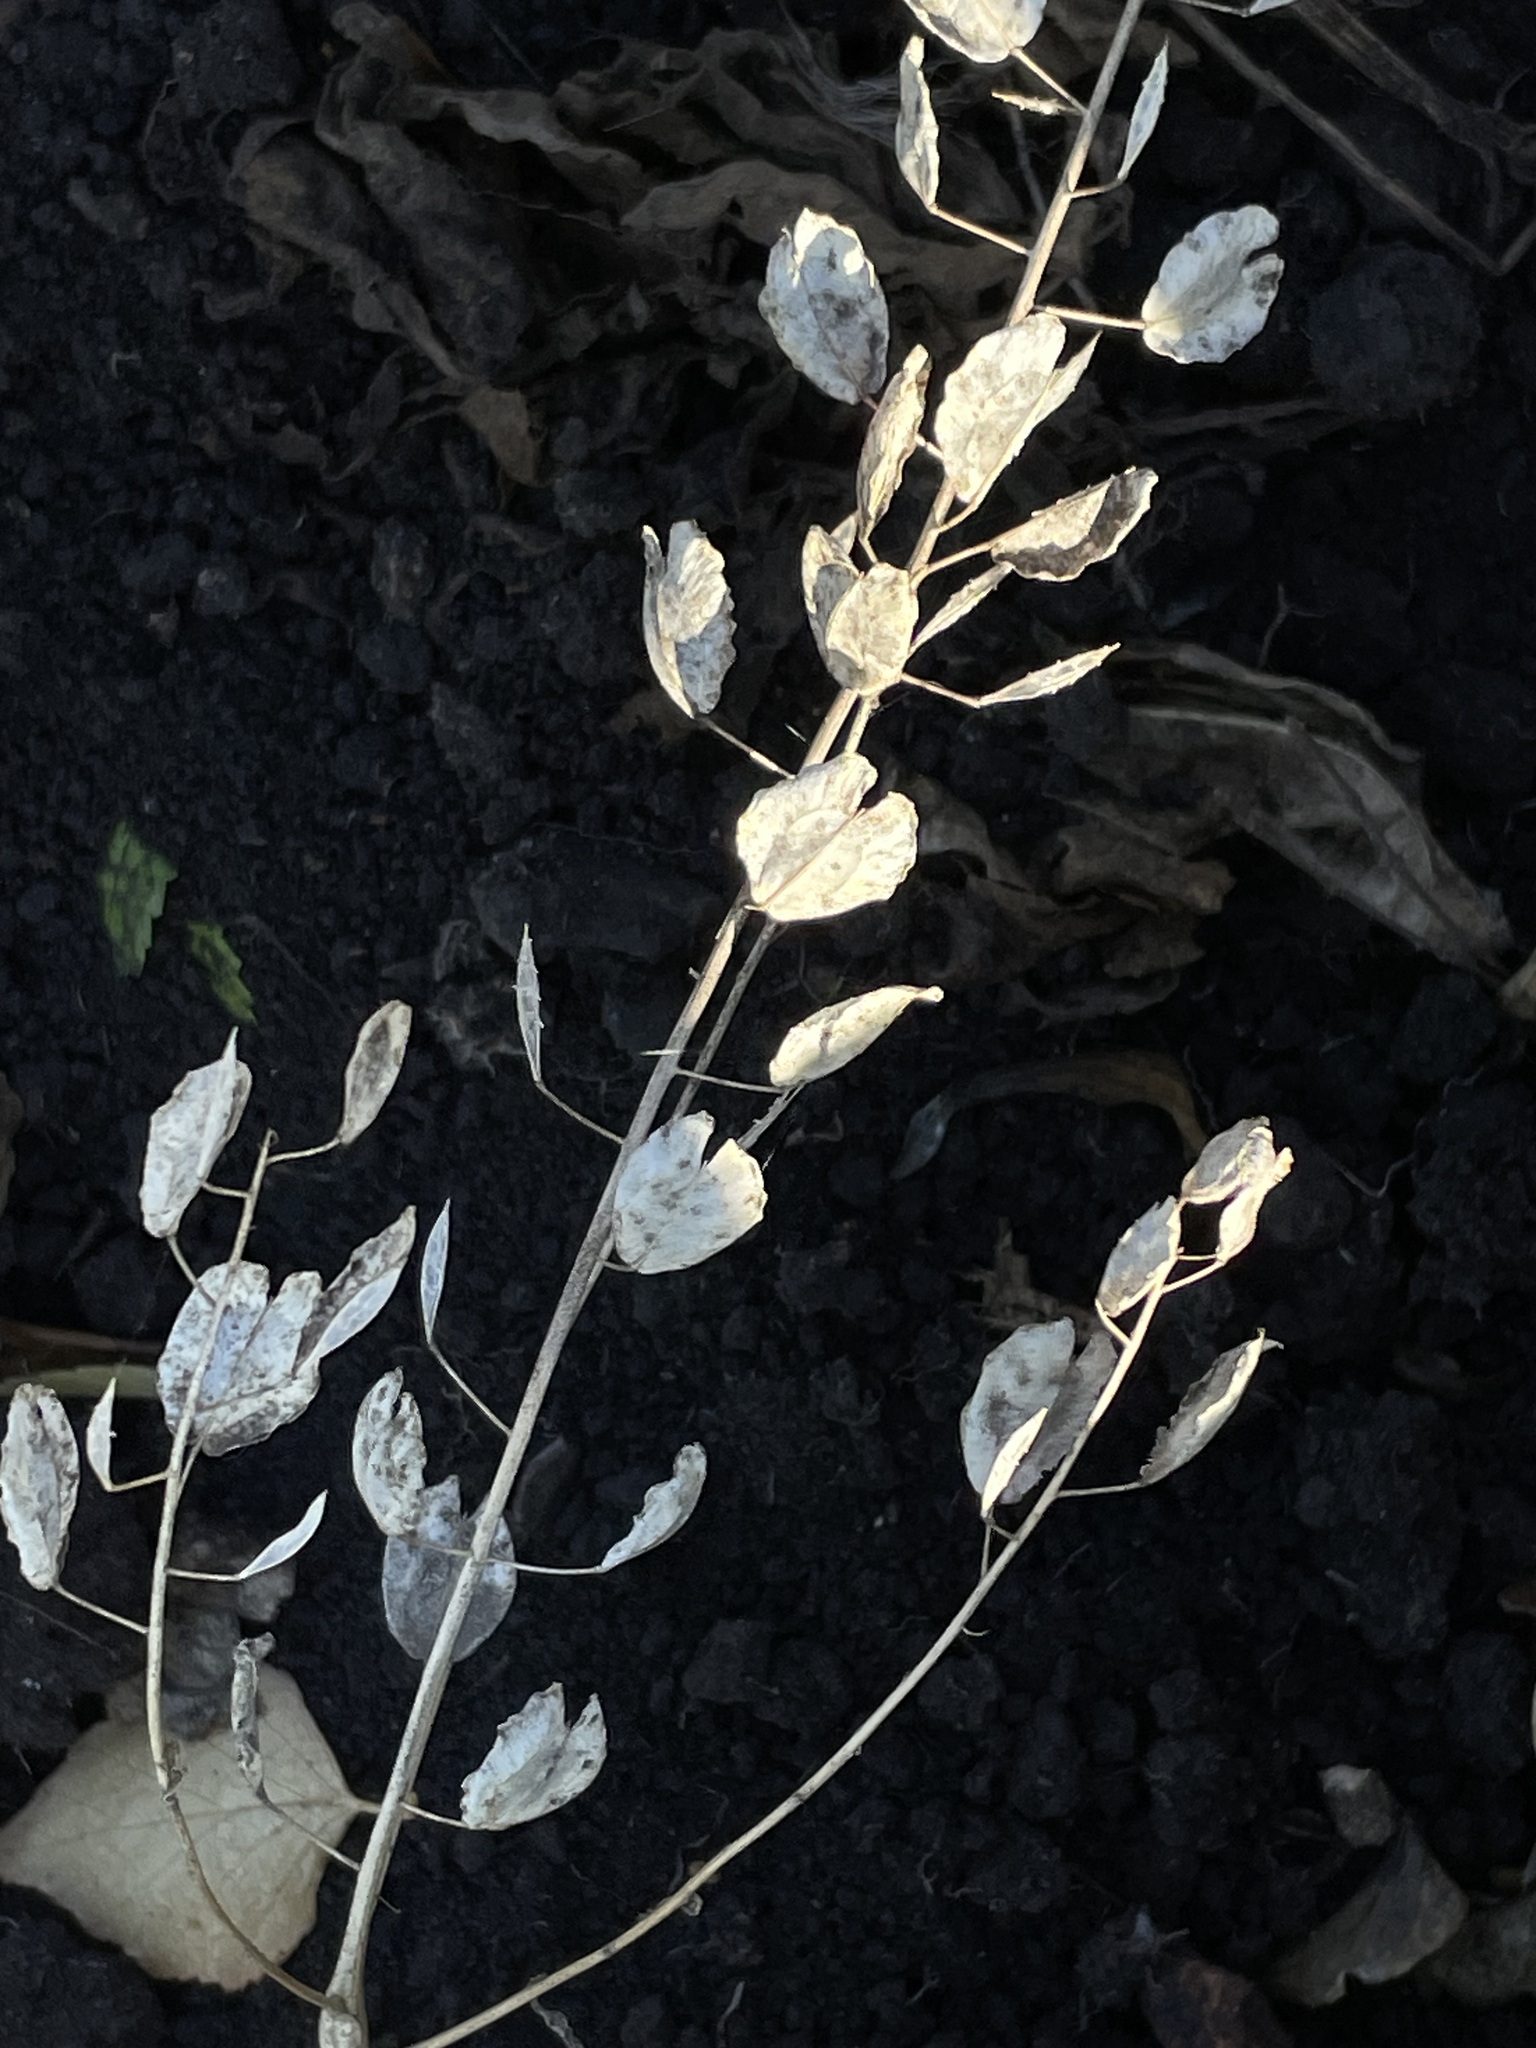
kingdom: Plantae
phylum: Tracheophyta
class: Magnoliopsida
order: Brassicales
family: Brassicaceae
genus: Thlaspi
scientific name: Thlaspi arvense
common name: Field pennycress
